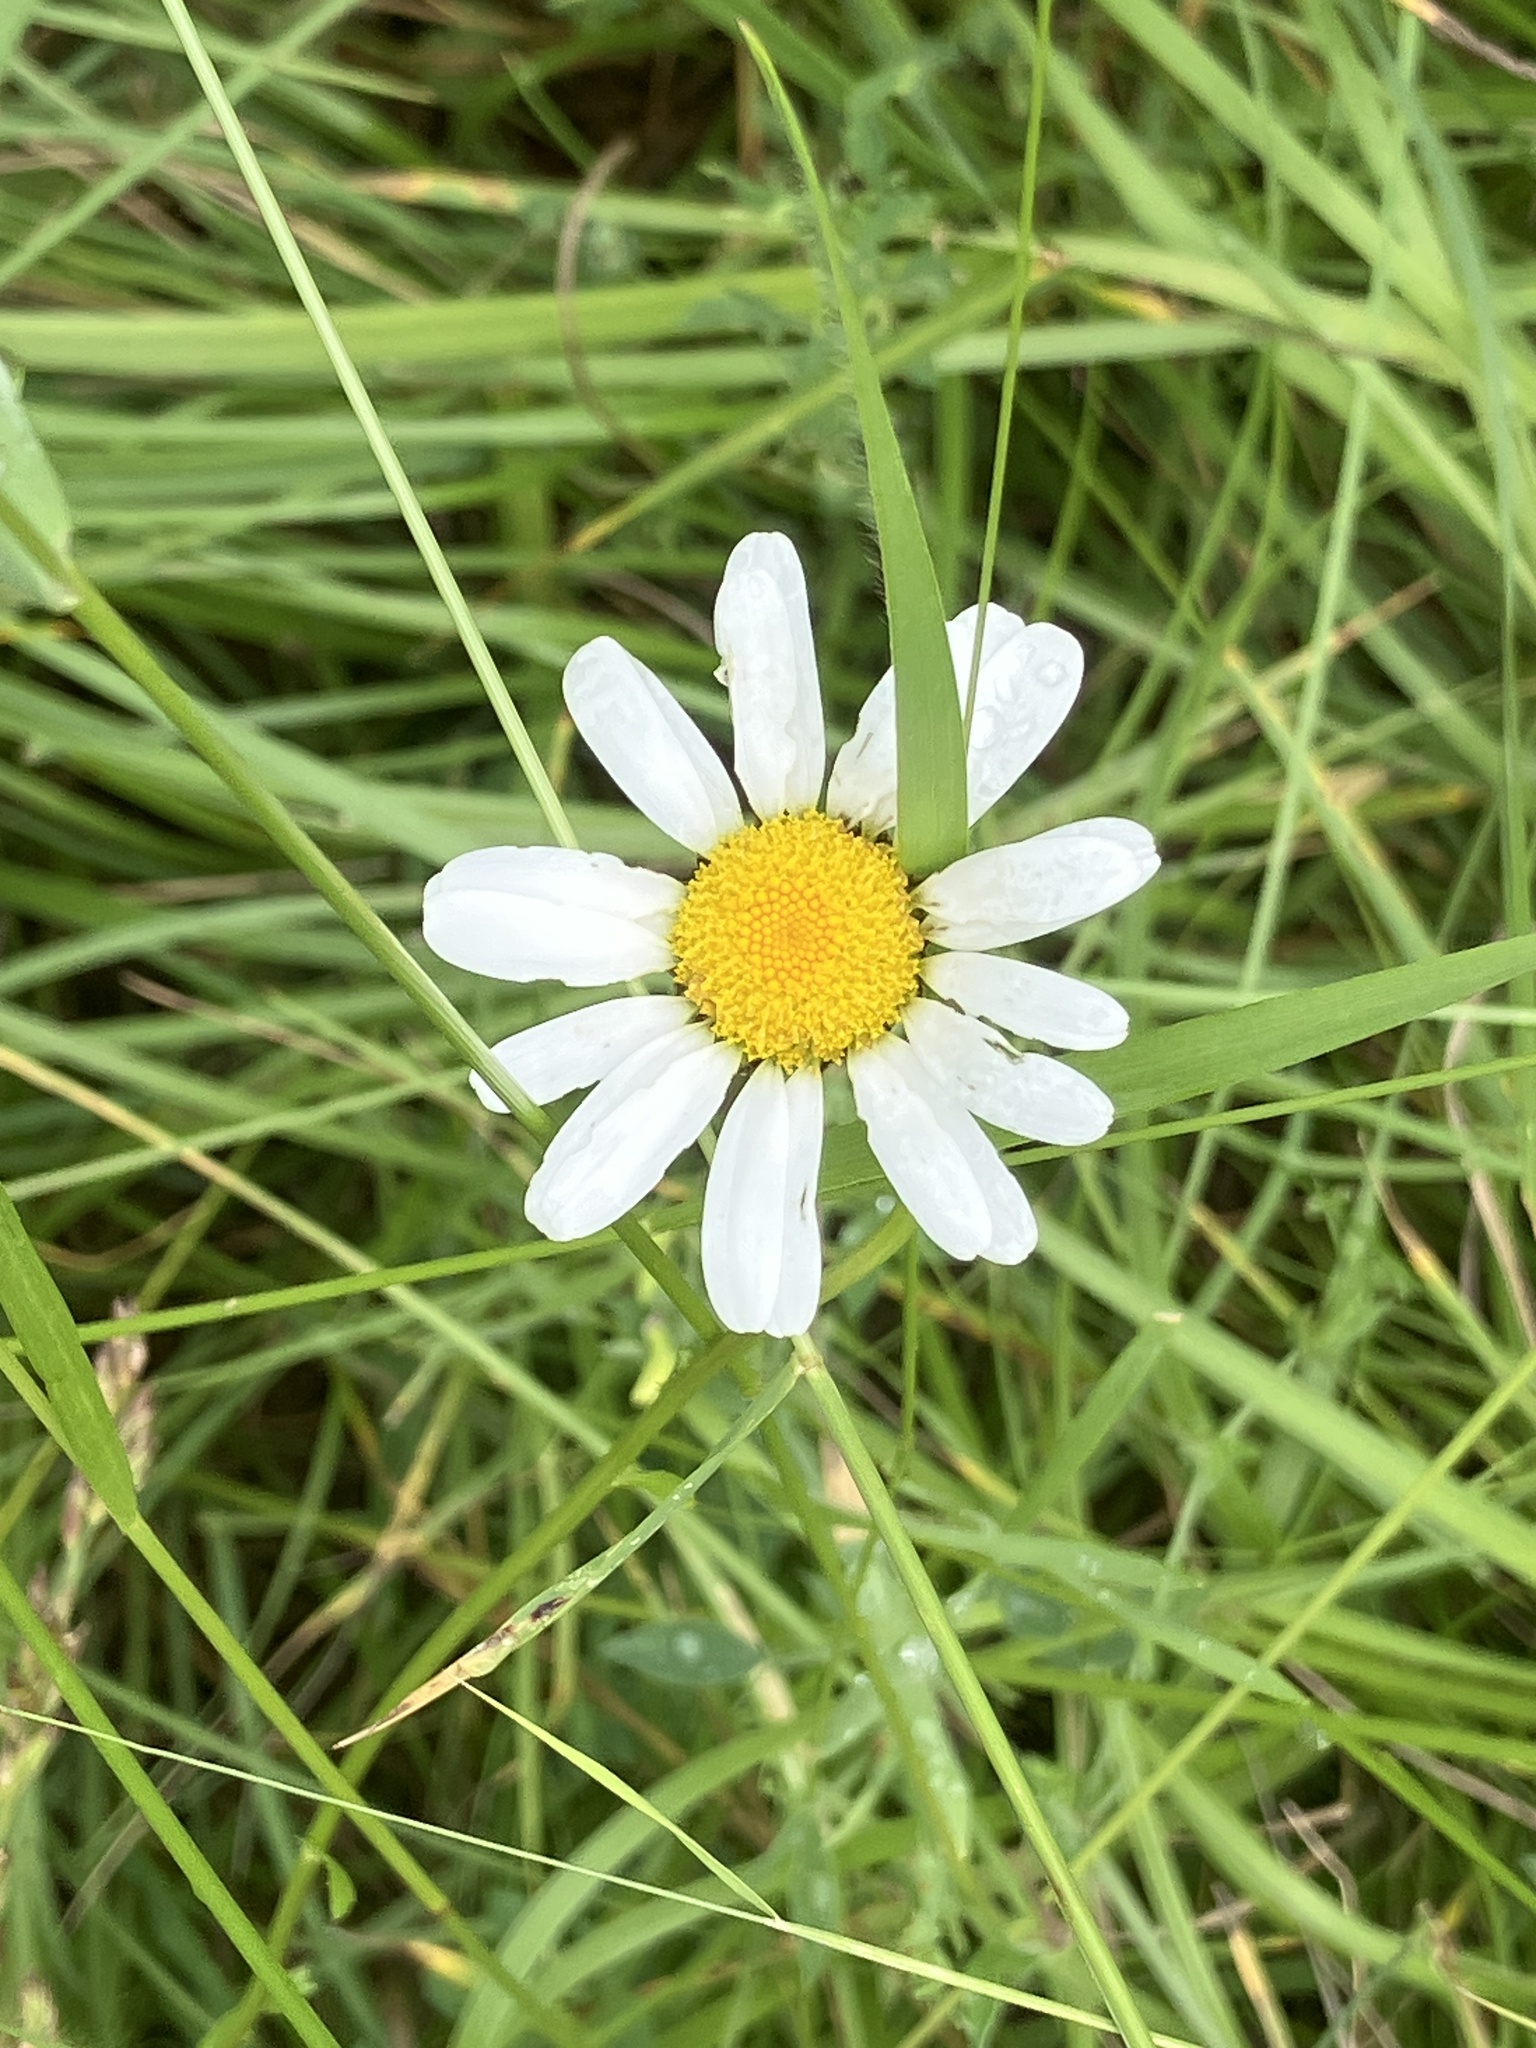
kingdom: Plantae
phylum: Tracheophyta
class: Magnoliopsida
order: Asterales
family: Asteraceae
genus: Leucanthemum
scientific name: Leucanthemum vulgare
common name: Oxeye daisy
